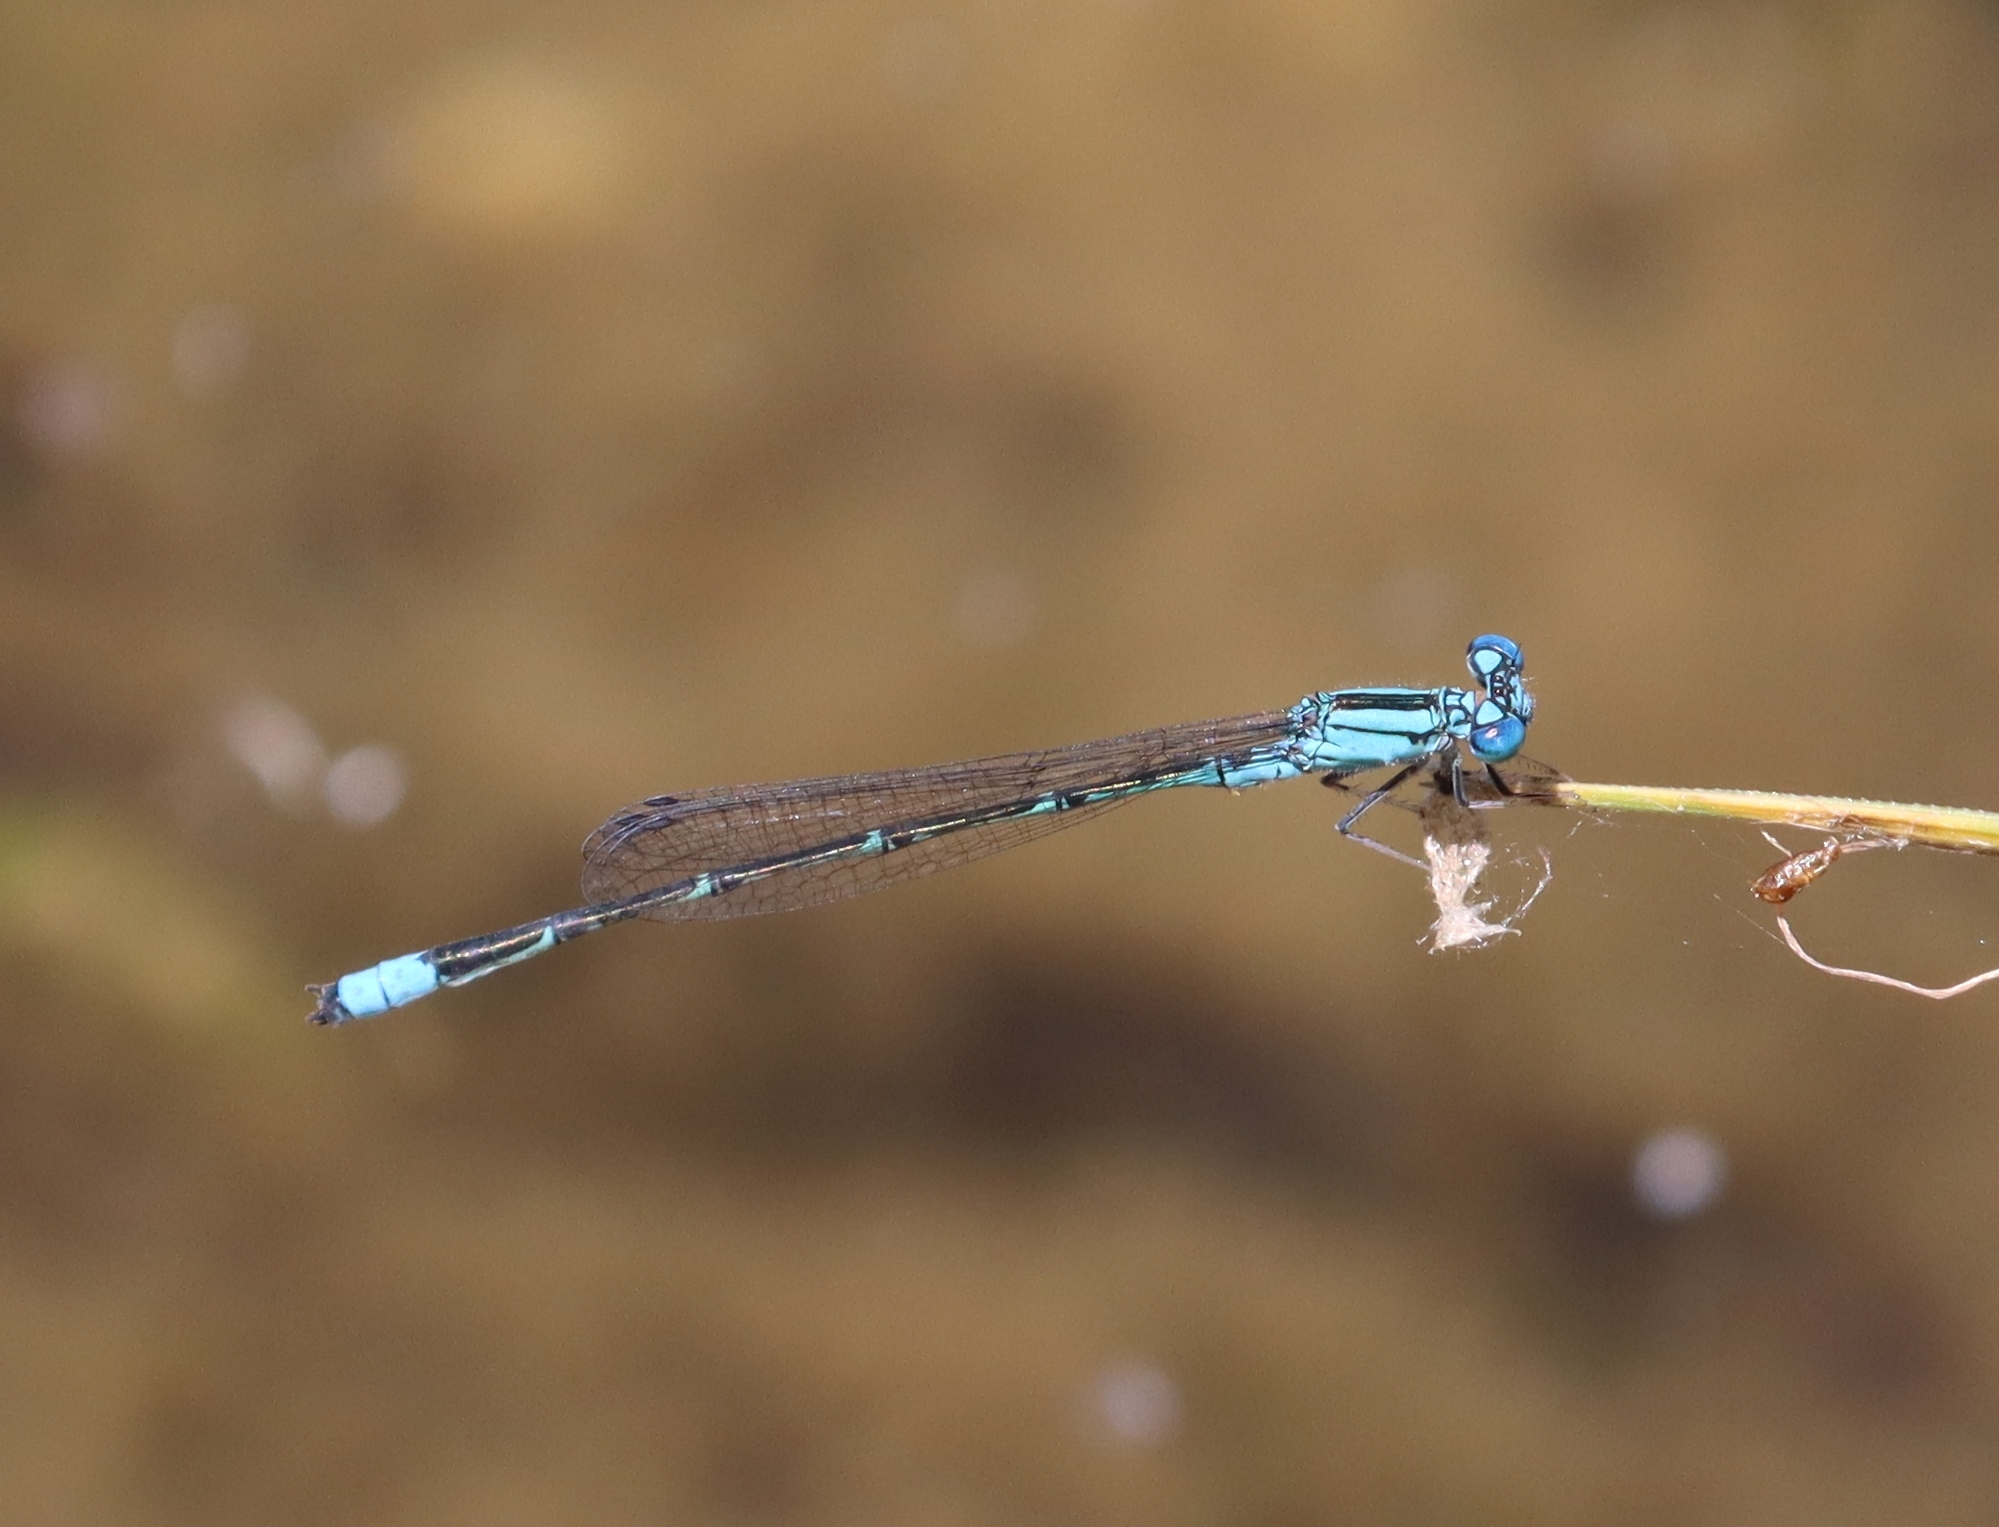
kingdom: Animalia
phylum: Arthropoda
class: Insecta
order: Odonata
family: Coenagrionidae
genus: Enallagma
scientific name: Enallagma traviatum
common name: Slender bluet
